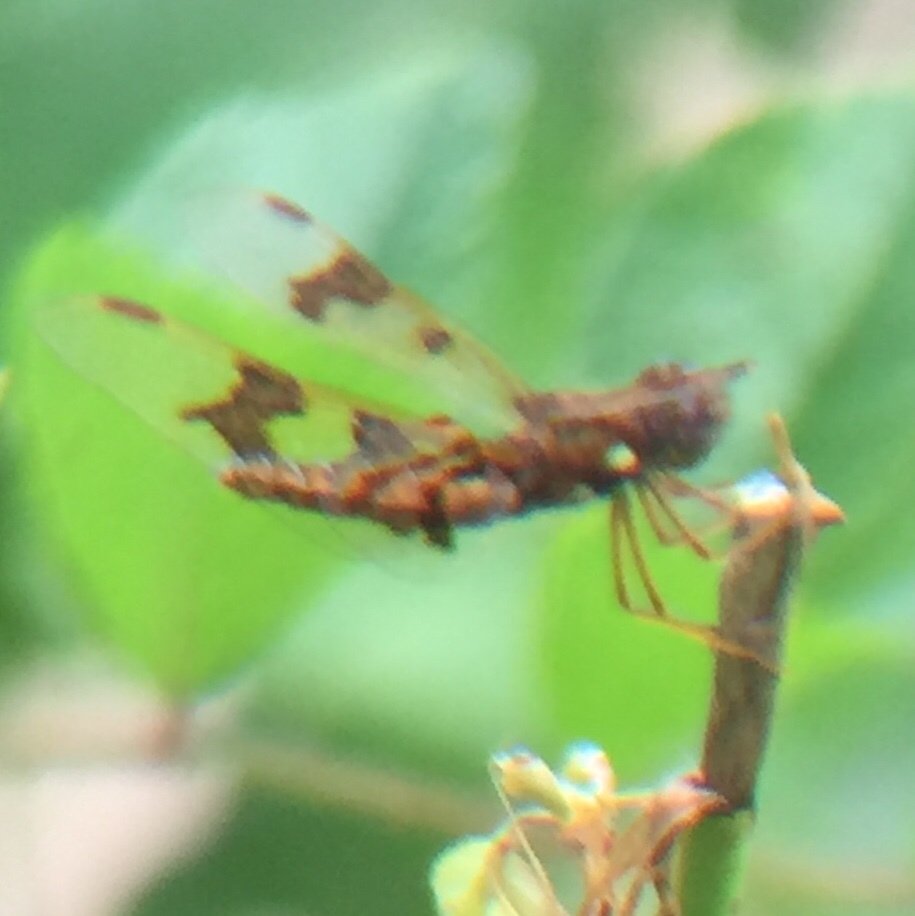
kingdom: Animalia
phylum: Arthropoda
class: Insecta
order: Odonata
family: Libellulidae
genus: Perithemis
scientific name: Perithemis tenera
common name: Eastern amberwing
